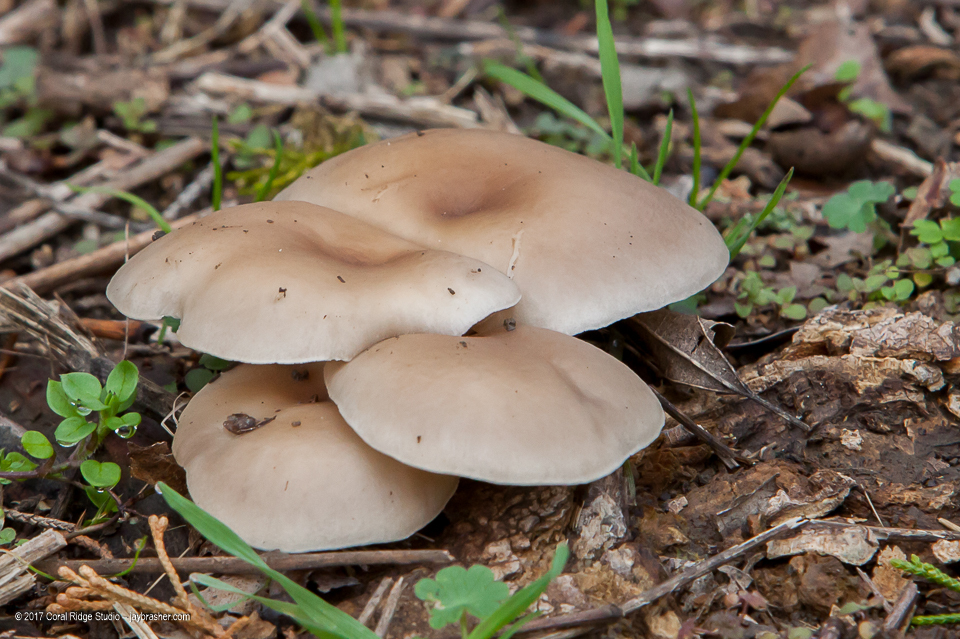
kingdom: Fungi
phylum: Basidiomycota
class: Agaricomycetes
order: Agaricales
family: Pleurotaceae
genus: Pleurotus
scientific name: Pleurotus ostreatus
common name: Oyster mushroom
